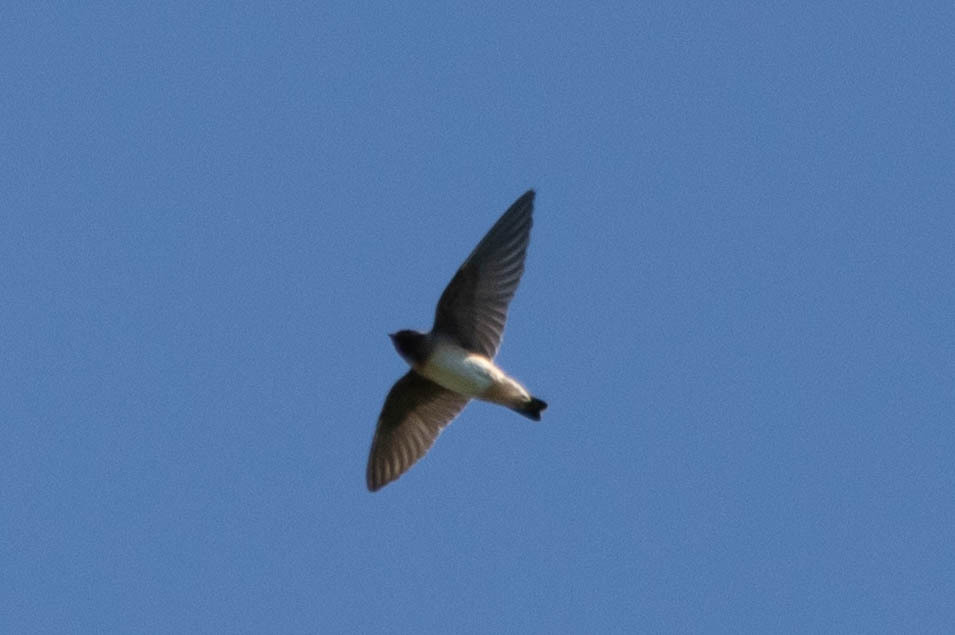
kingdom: Animalia
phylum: Chordata
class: Aves
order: Passeriformes
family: Hirundinidae
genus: Petrochelidon
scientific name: Petrochelidon pyrrhonota
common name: American cliff swallow
